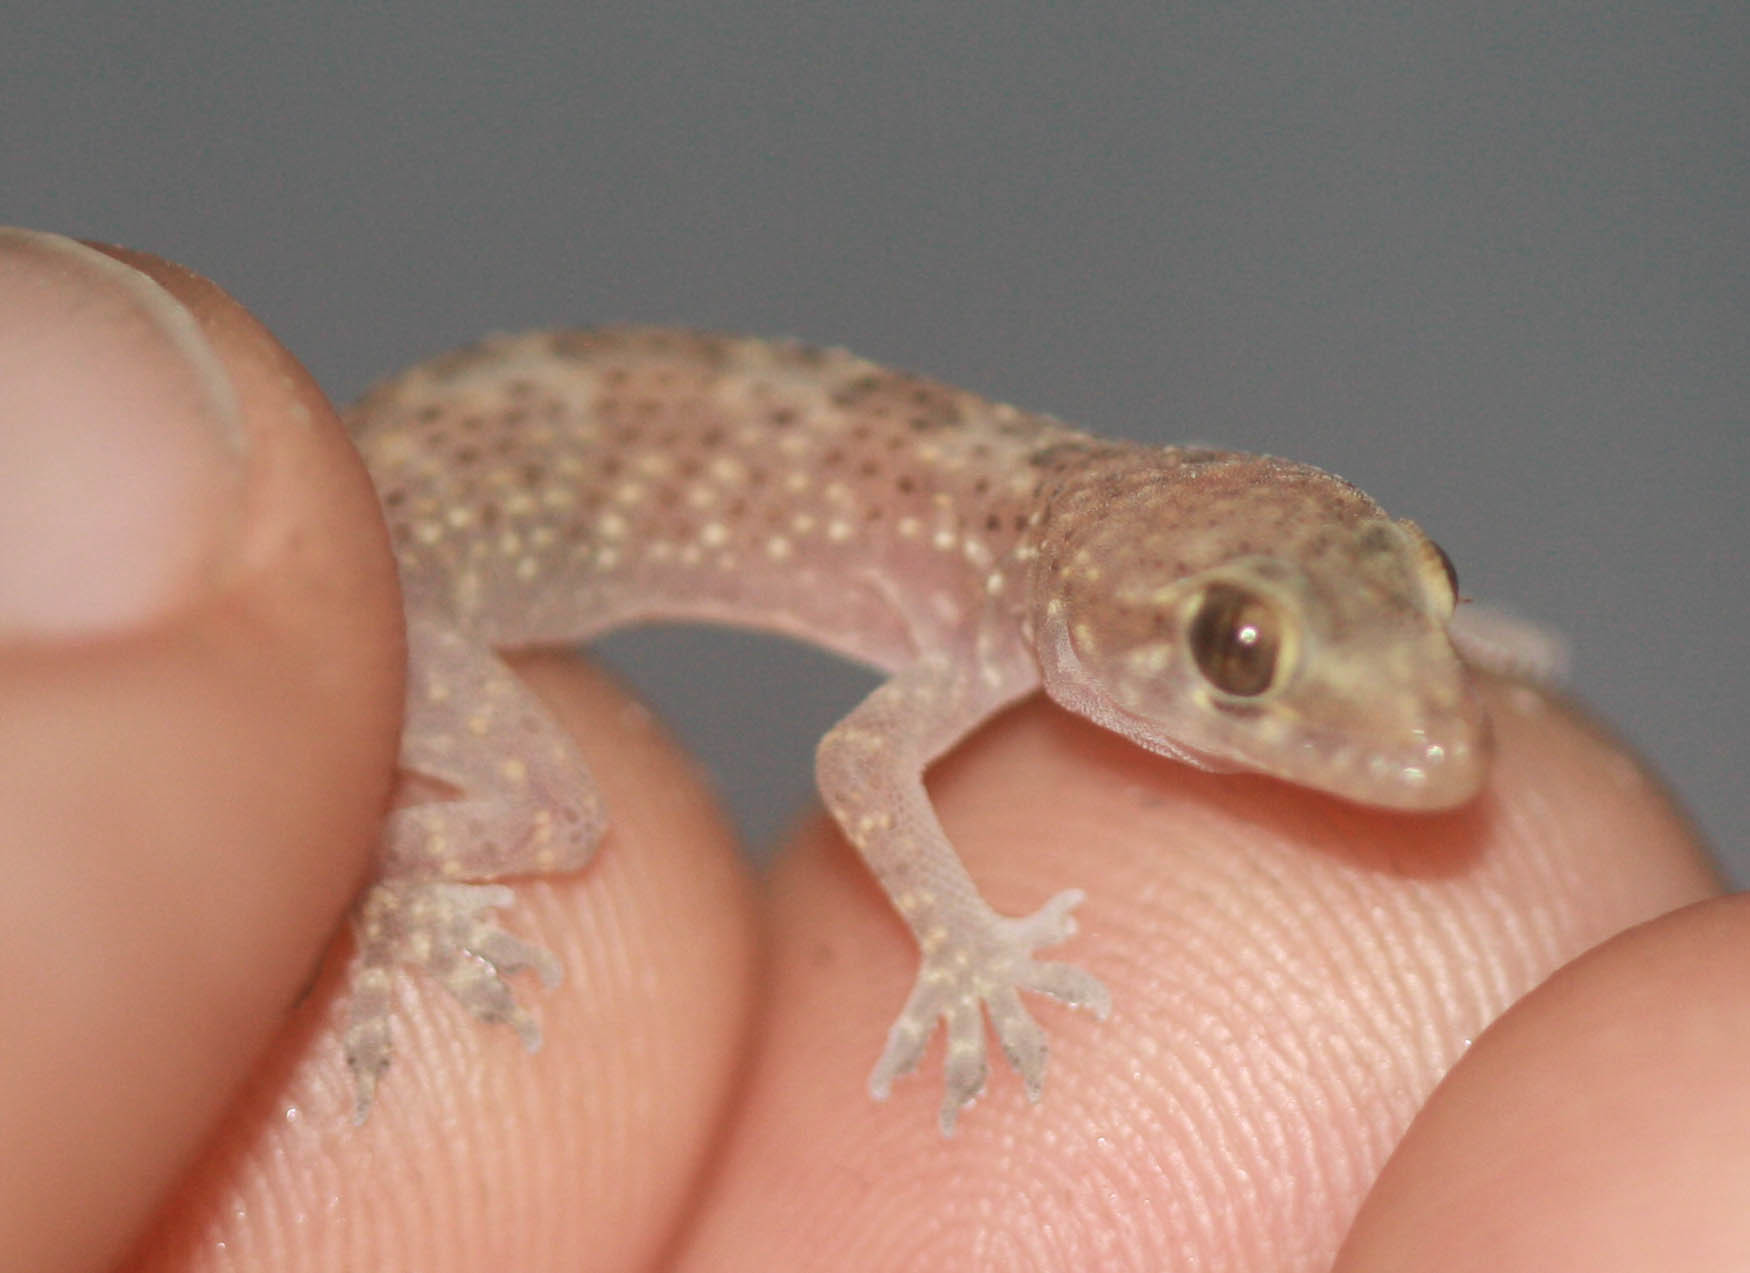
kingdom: Animalia
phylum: Chordata
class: Squamata
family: Gekkonidae
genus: Hemidactylus
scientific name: Hemidactylus turcicus
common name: Turkish gecko
